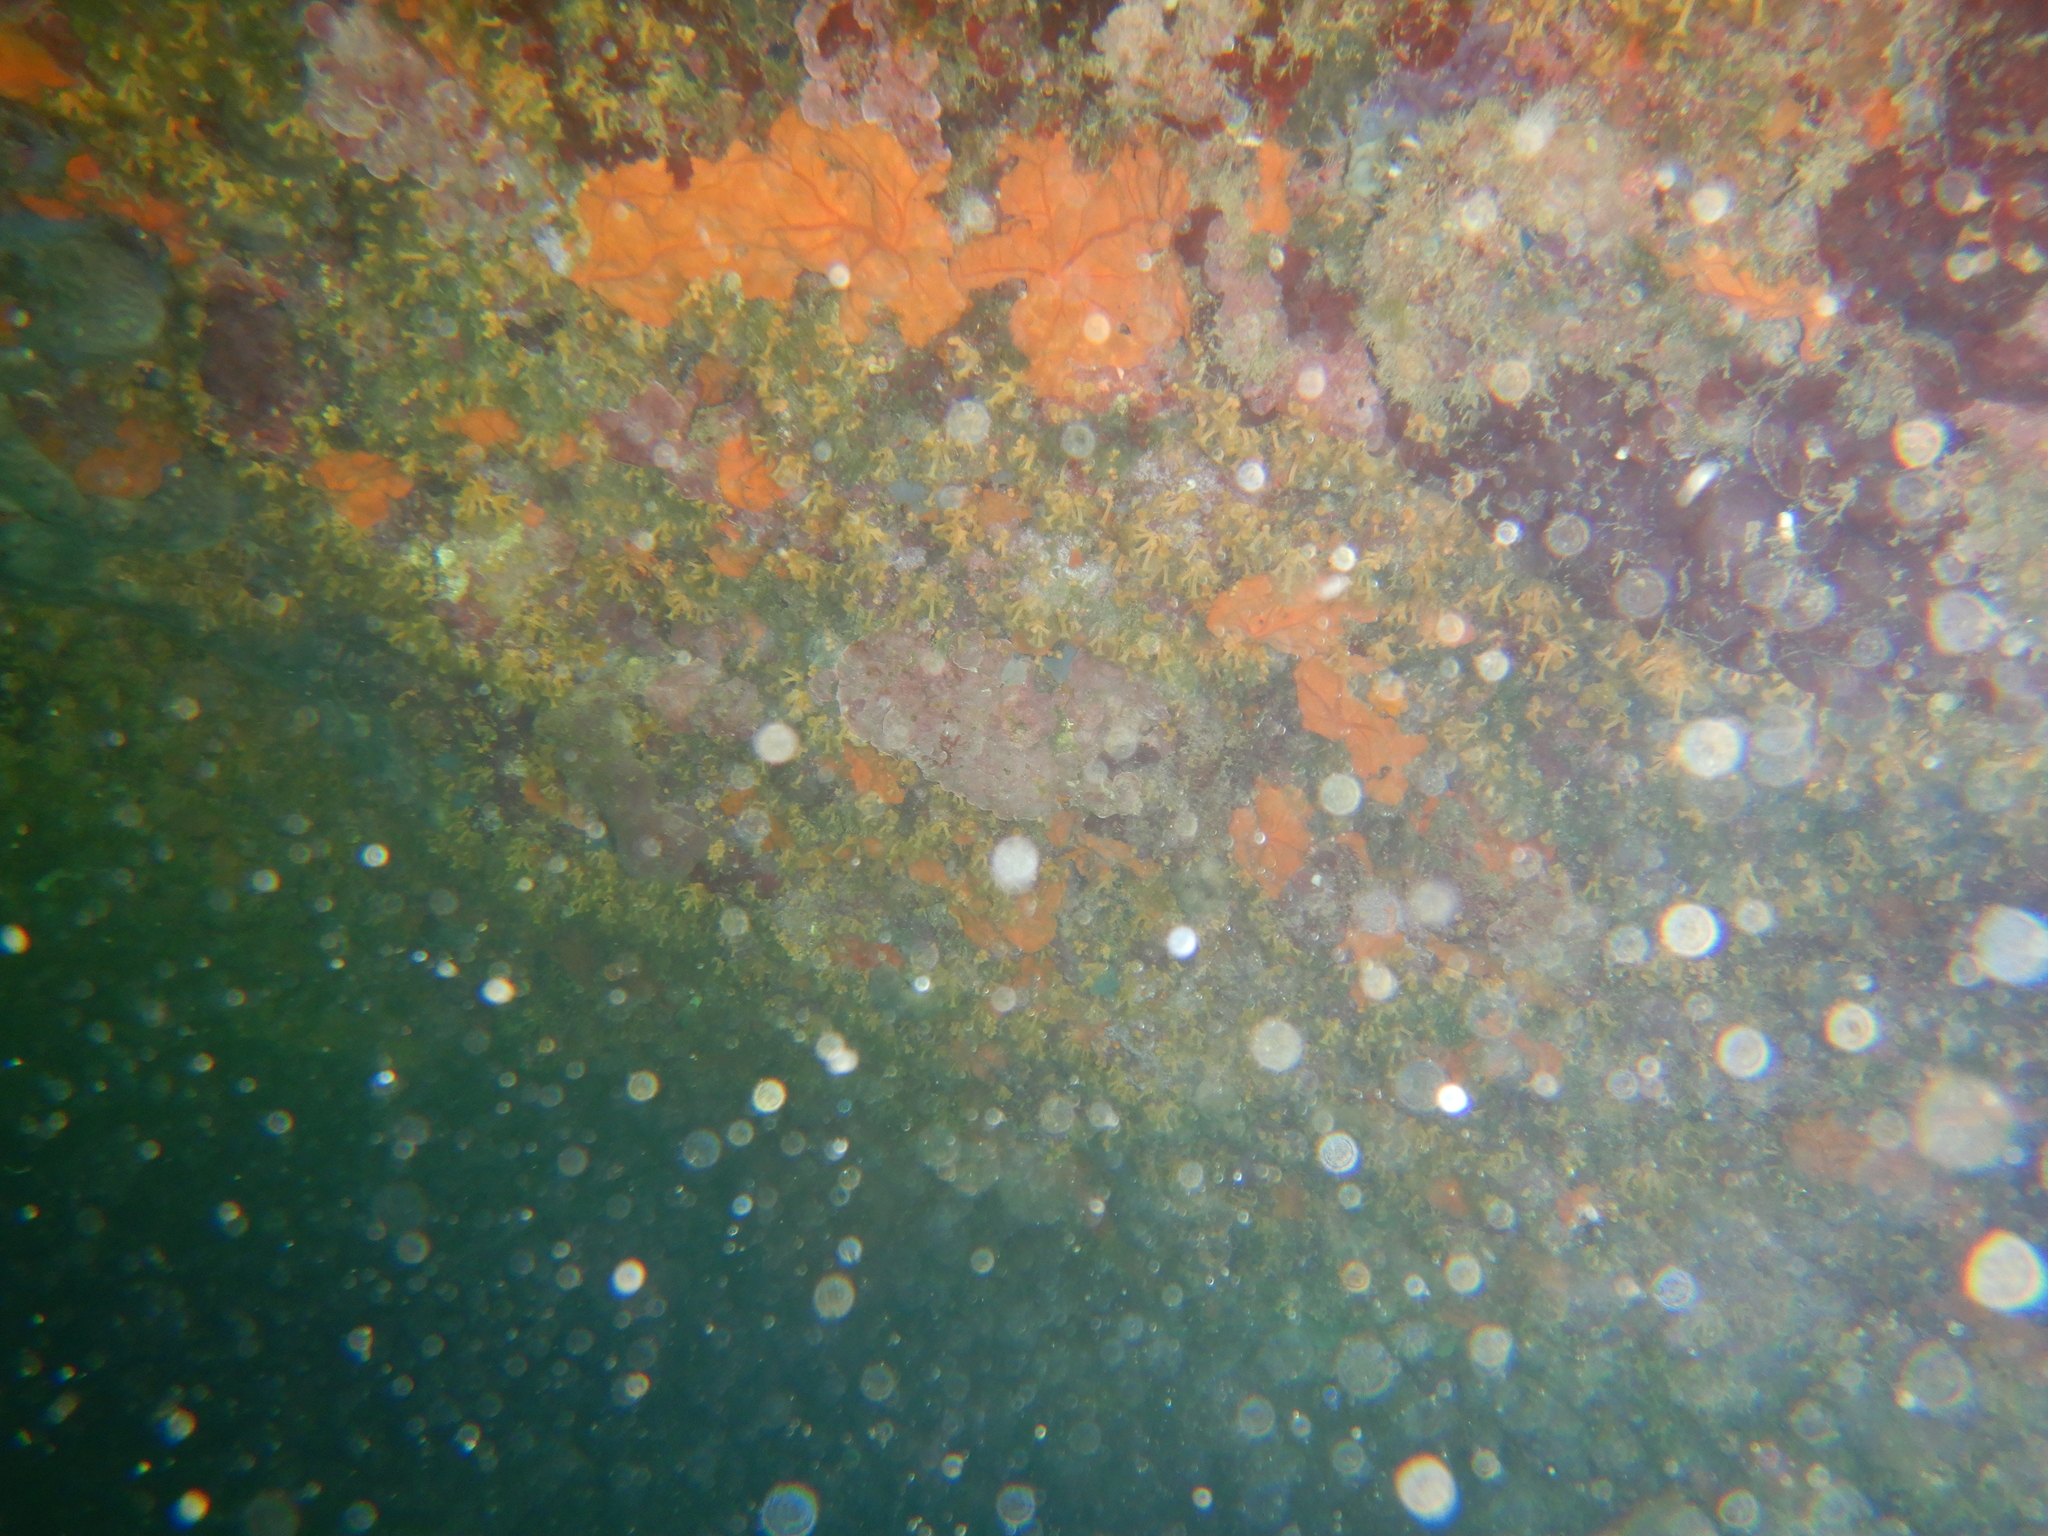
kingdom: Animalia
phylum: Cnidaria
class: Anthozoa
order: Zoantharia
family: Parazoanthidae
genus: Parazoanthus
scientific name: Parazoanthus axinellae
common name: Yellow cluster anemone
